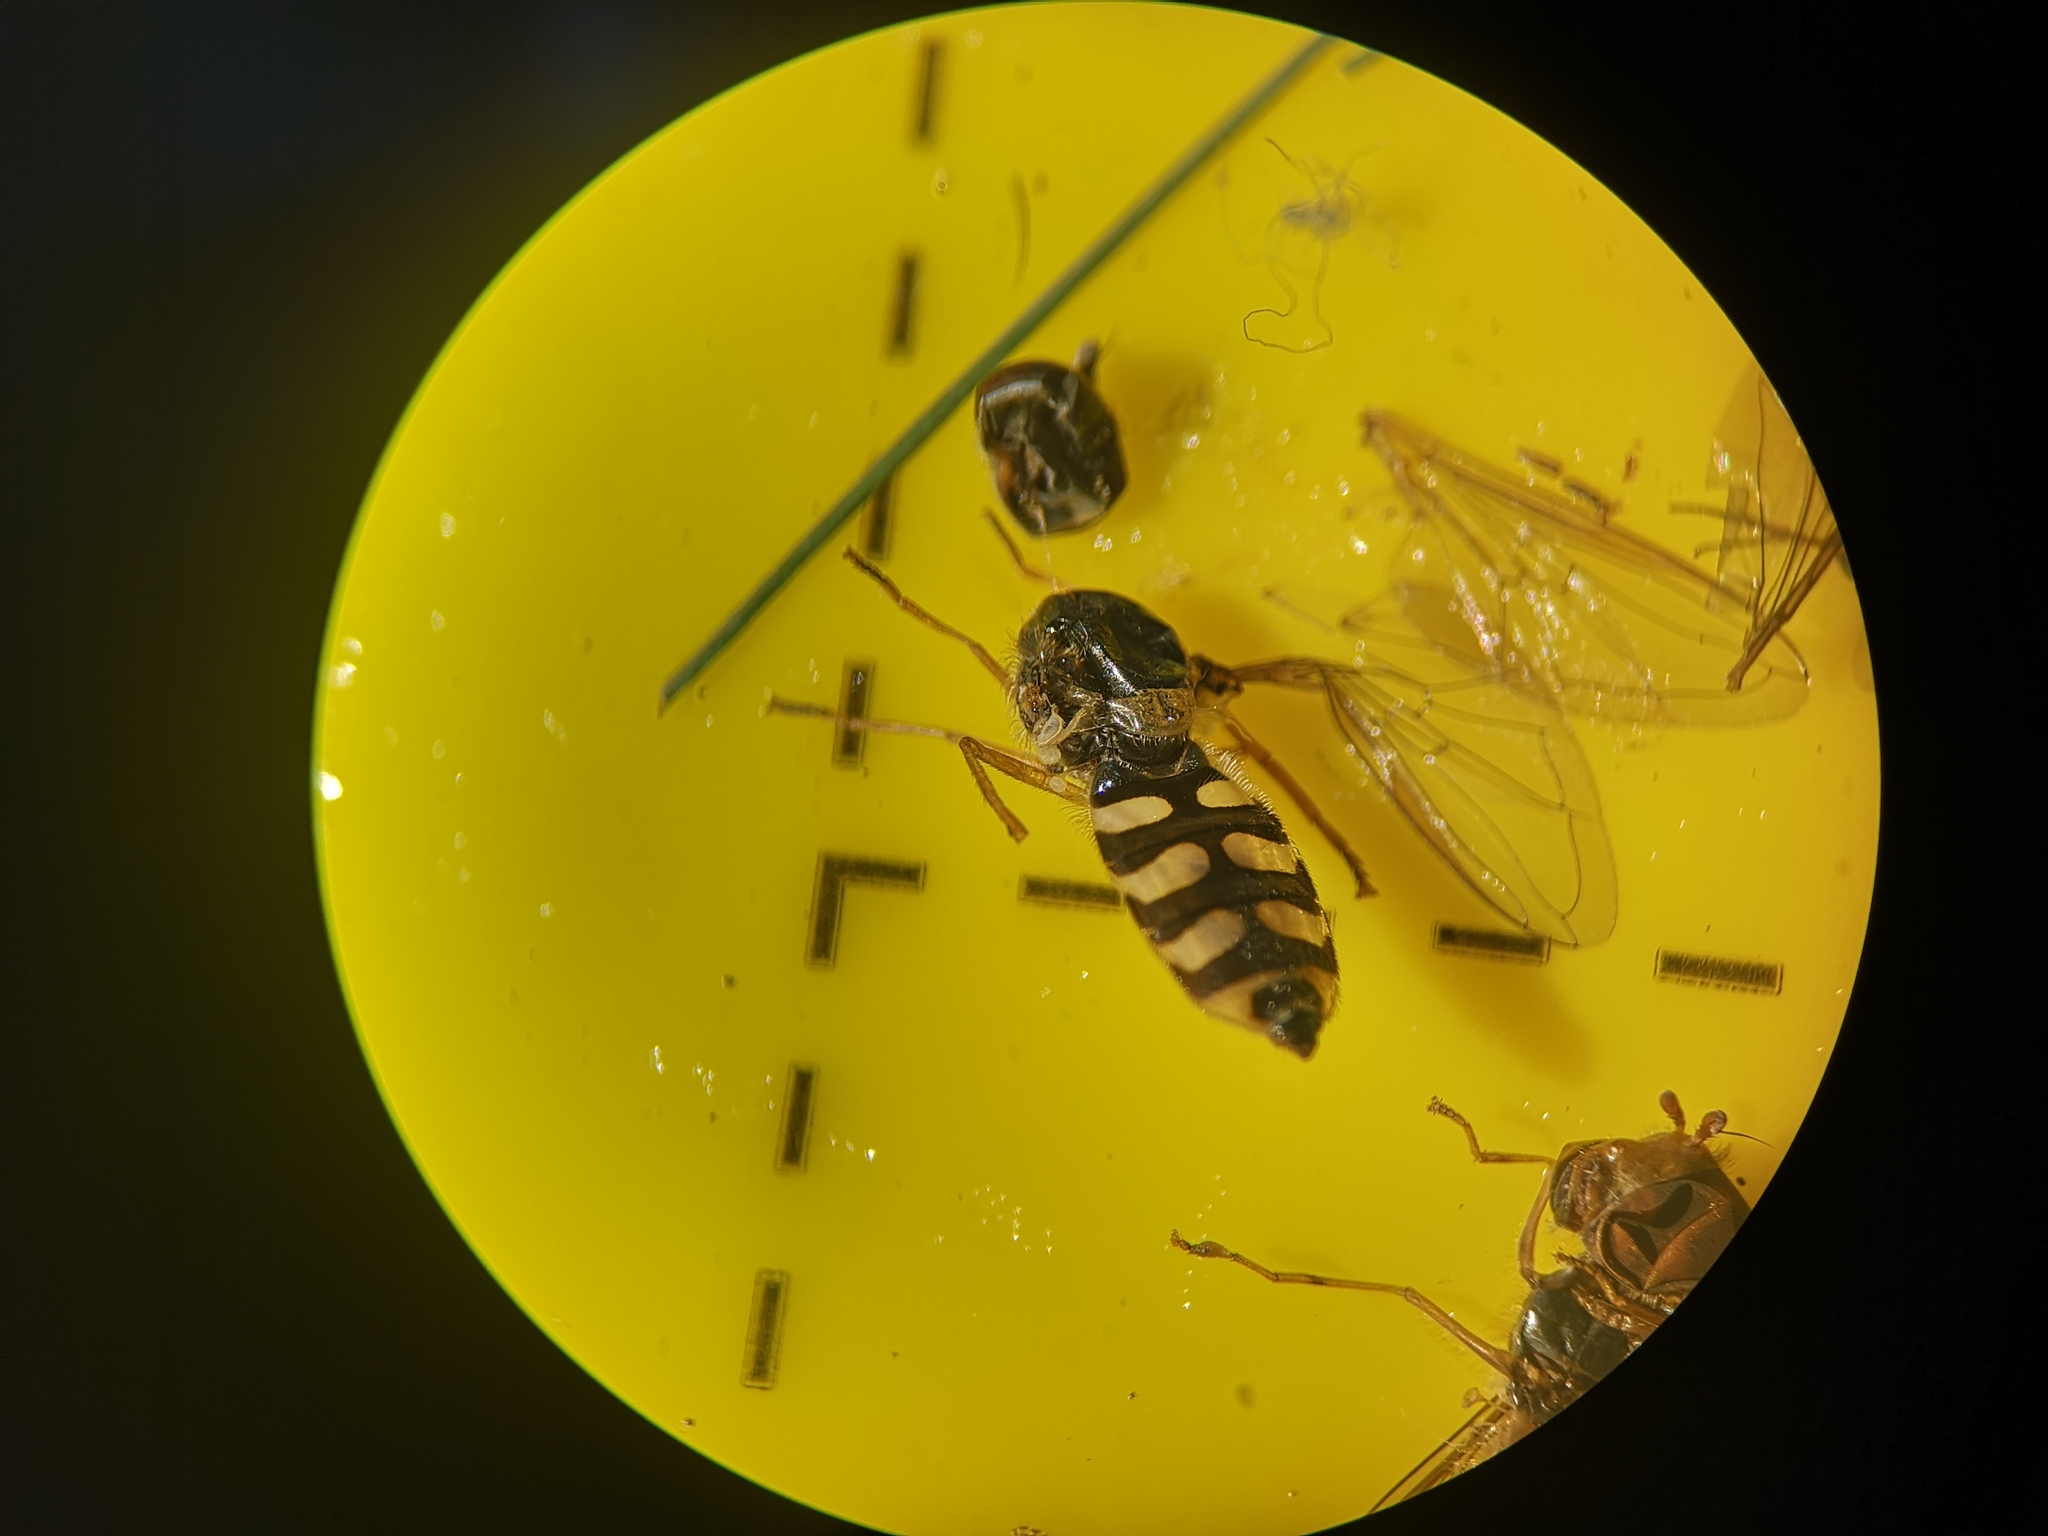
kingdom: Animalia
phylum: Arthropoda
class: Insecta
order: Diptera
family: Syrphidae
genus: Eupeodes
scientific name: Eupeodes corollae
